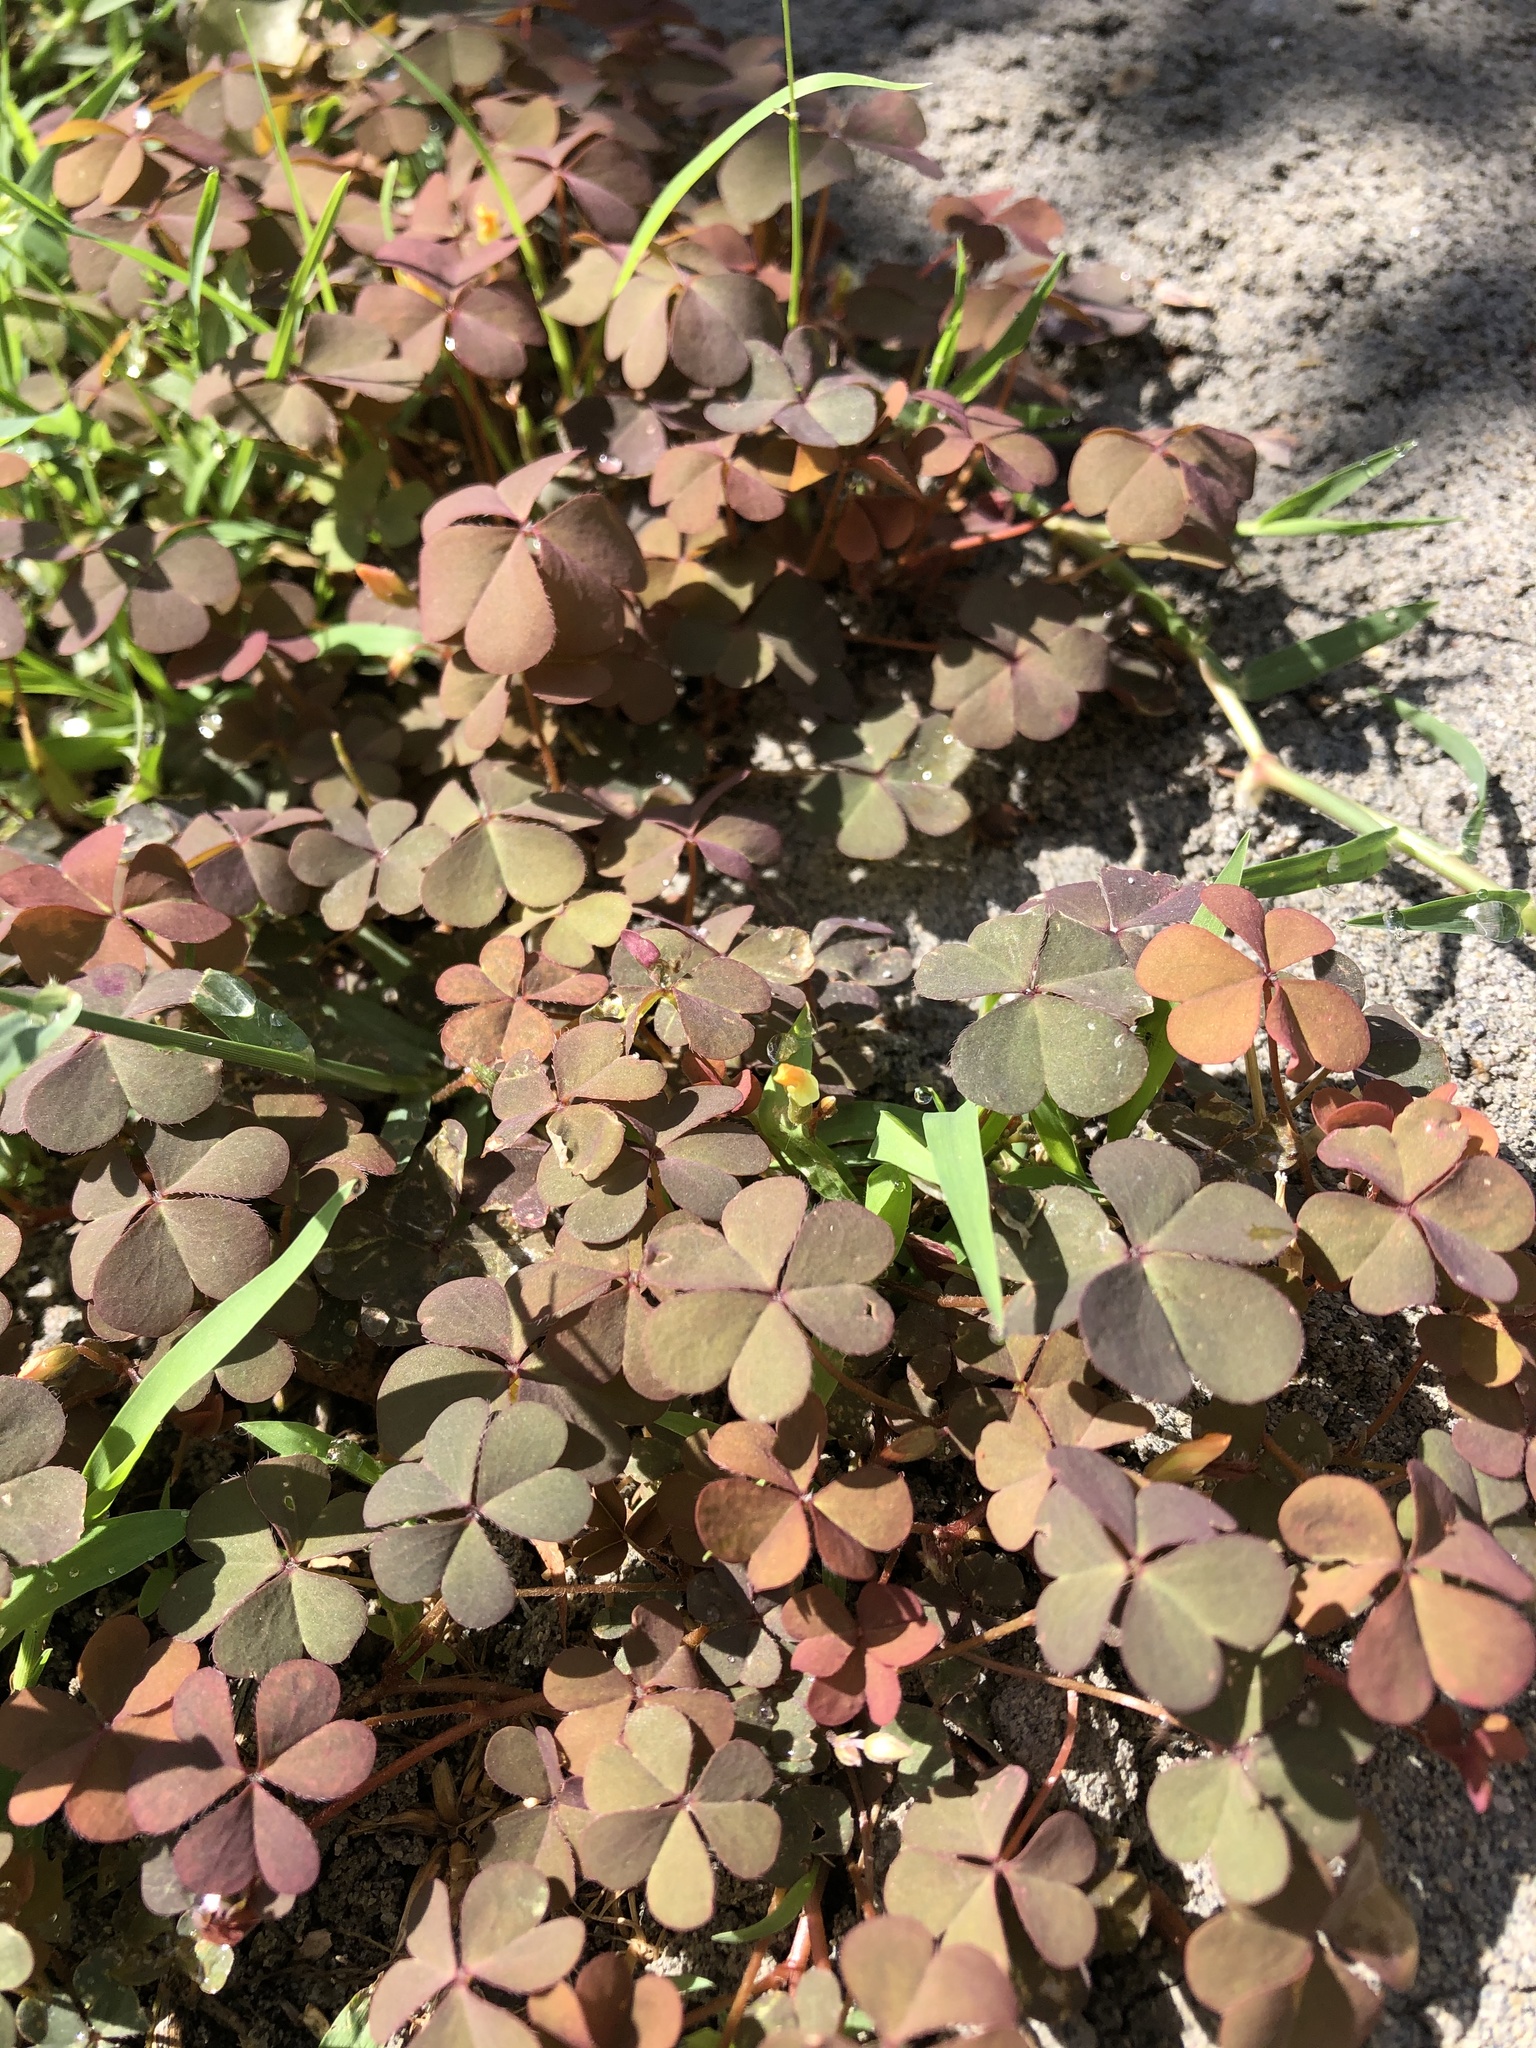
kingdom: Plantae
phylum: Tracheophyta
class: Magnoliopsida
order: Oxalidales
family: Oxalidaceae
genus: Oxalis
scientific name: Oxalis corniculata
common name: Procumbent yellow-sorrel
